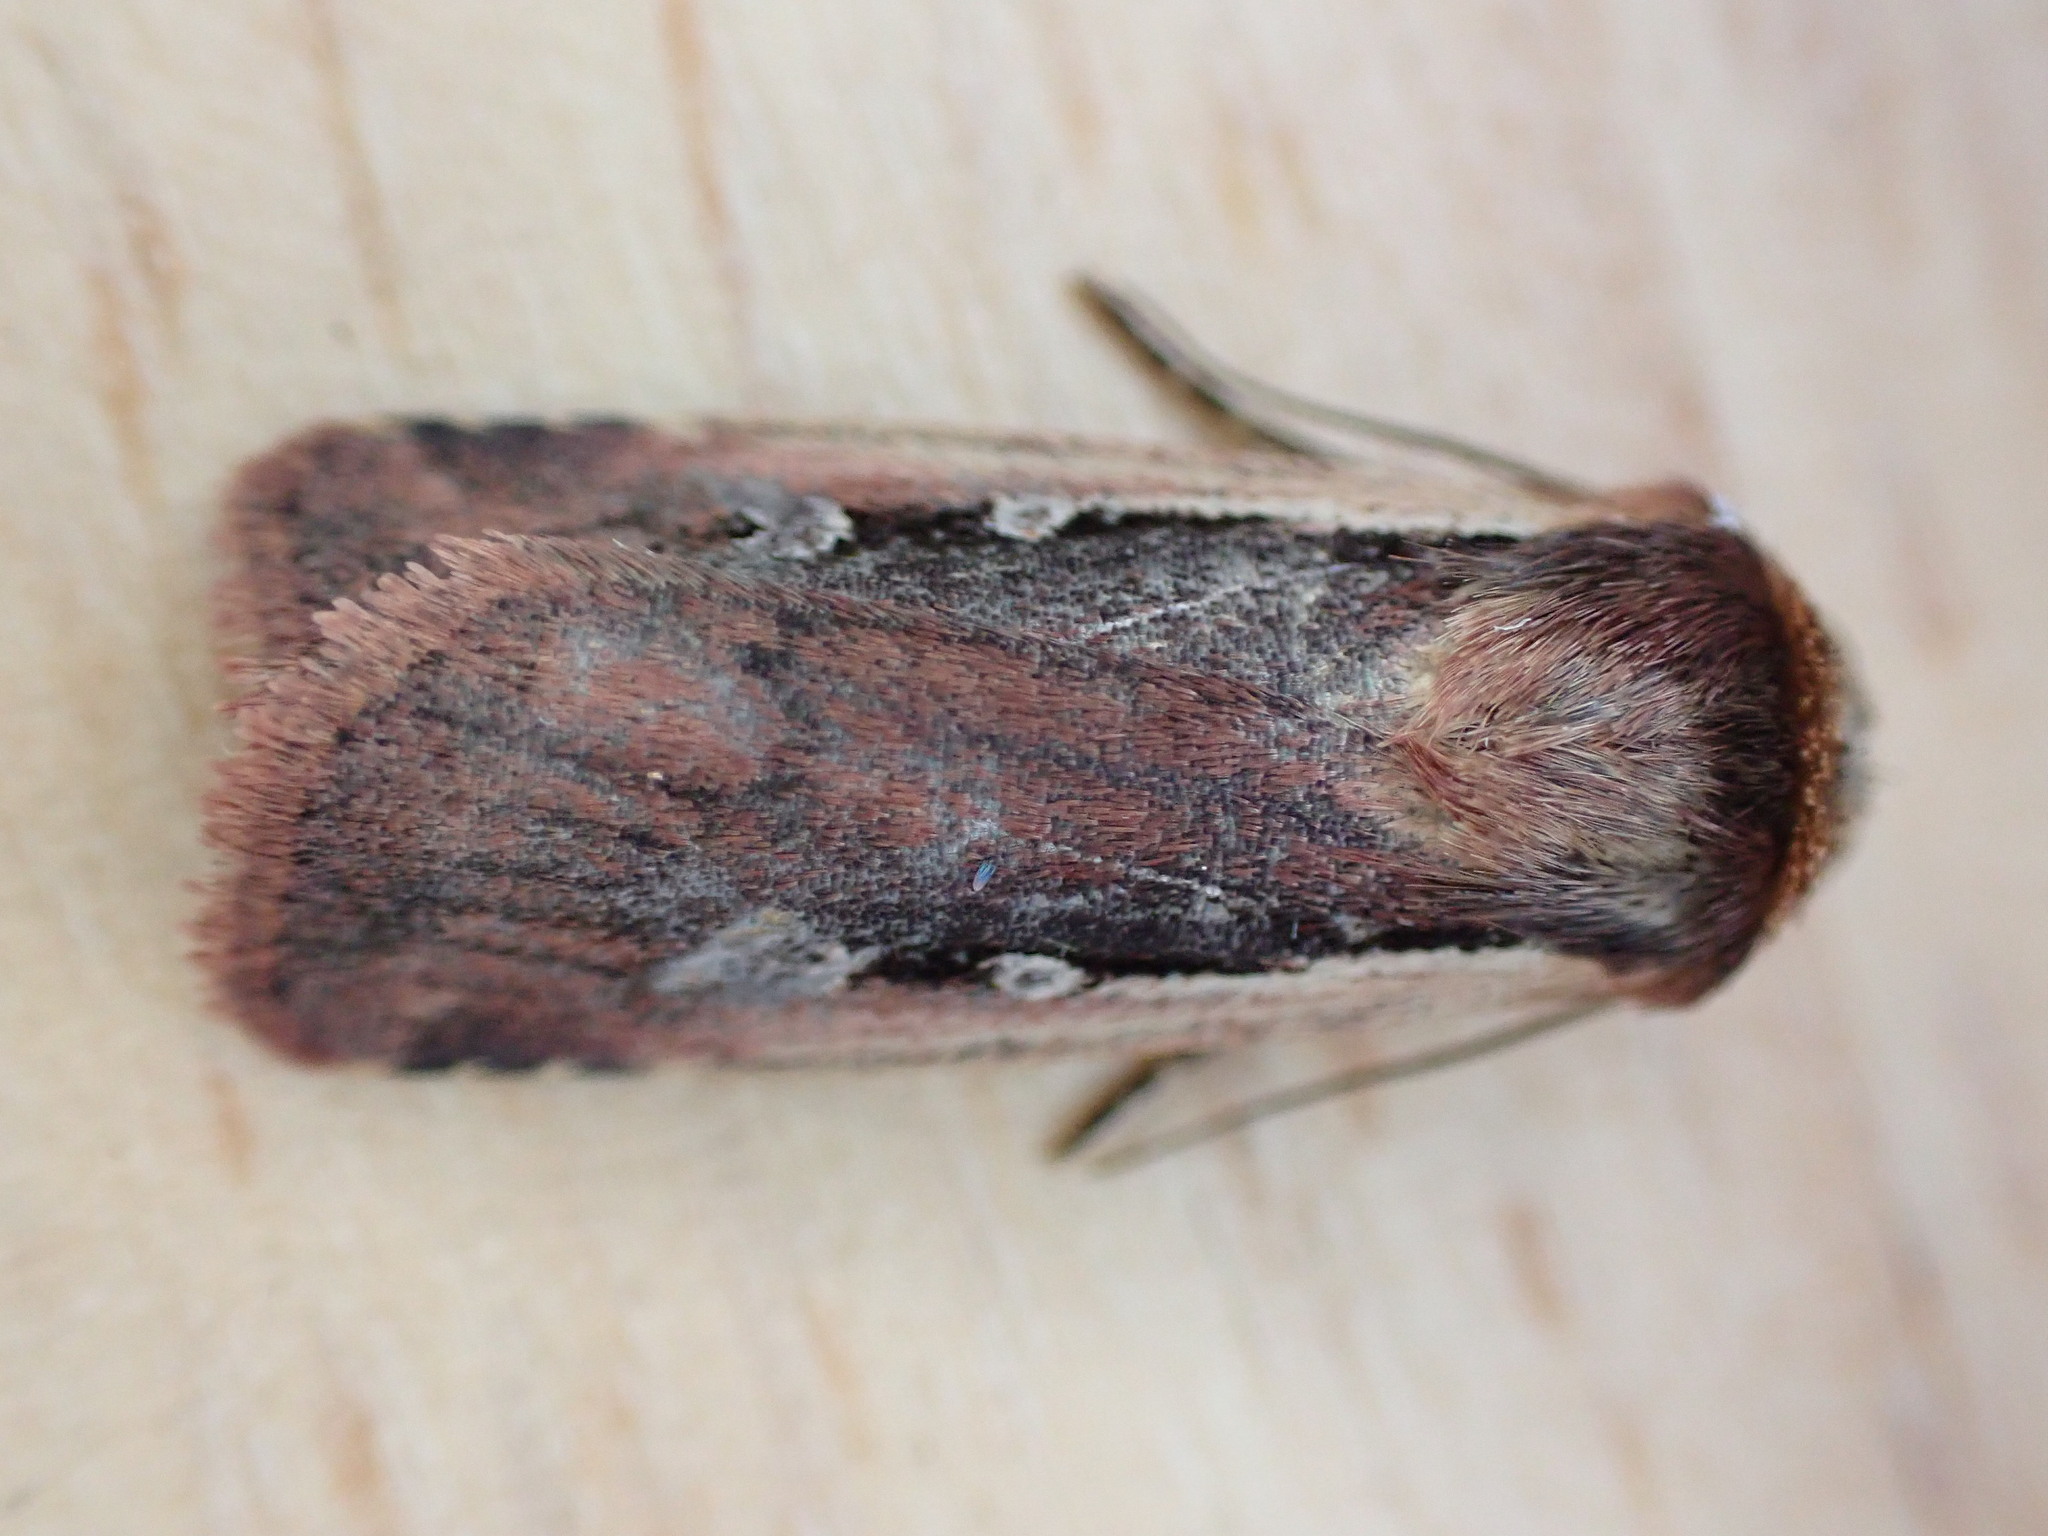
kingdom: Animalia
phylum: Arthropoda
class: Insecta
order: Lepidoptera
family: Noctuidae
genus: Ochropleura
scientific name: Ochropleura plecta
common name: Flame shoulder
